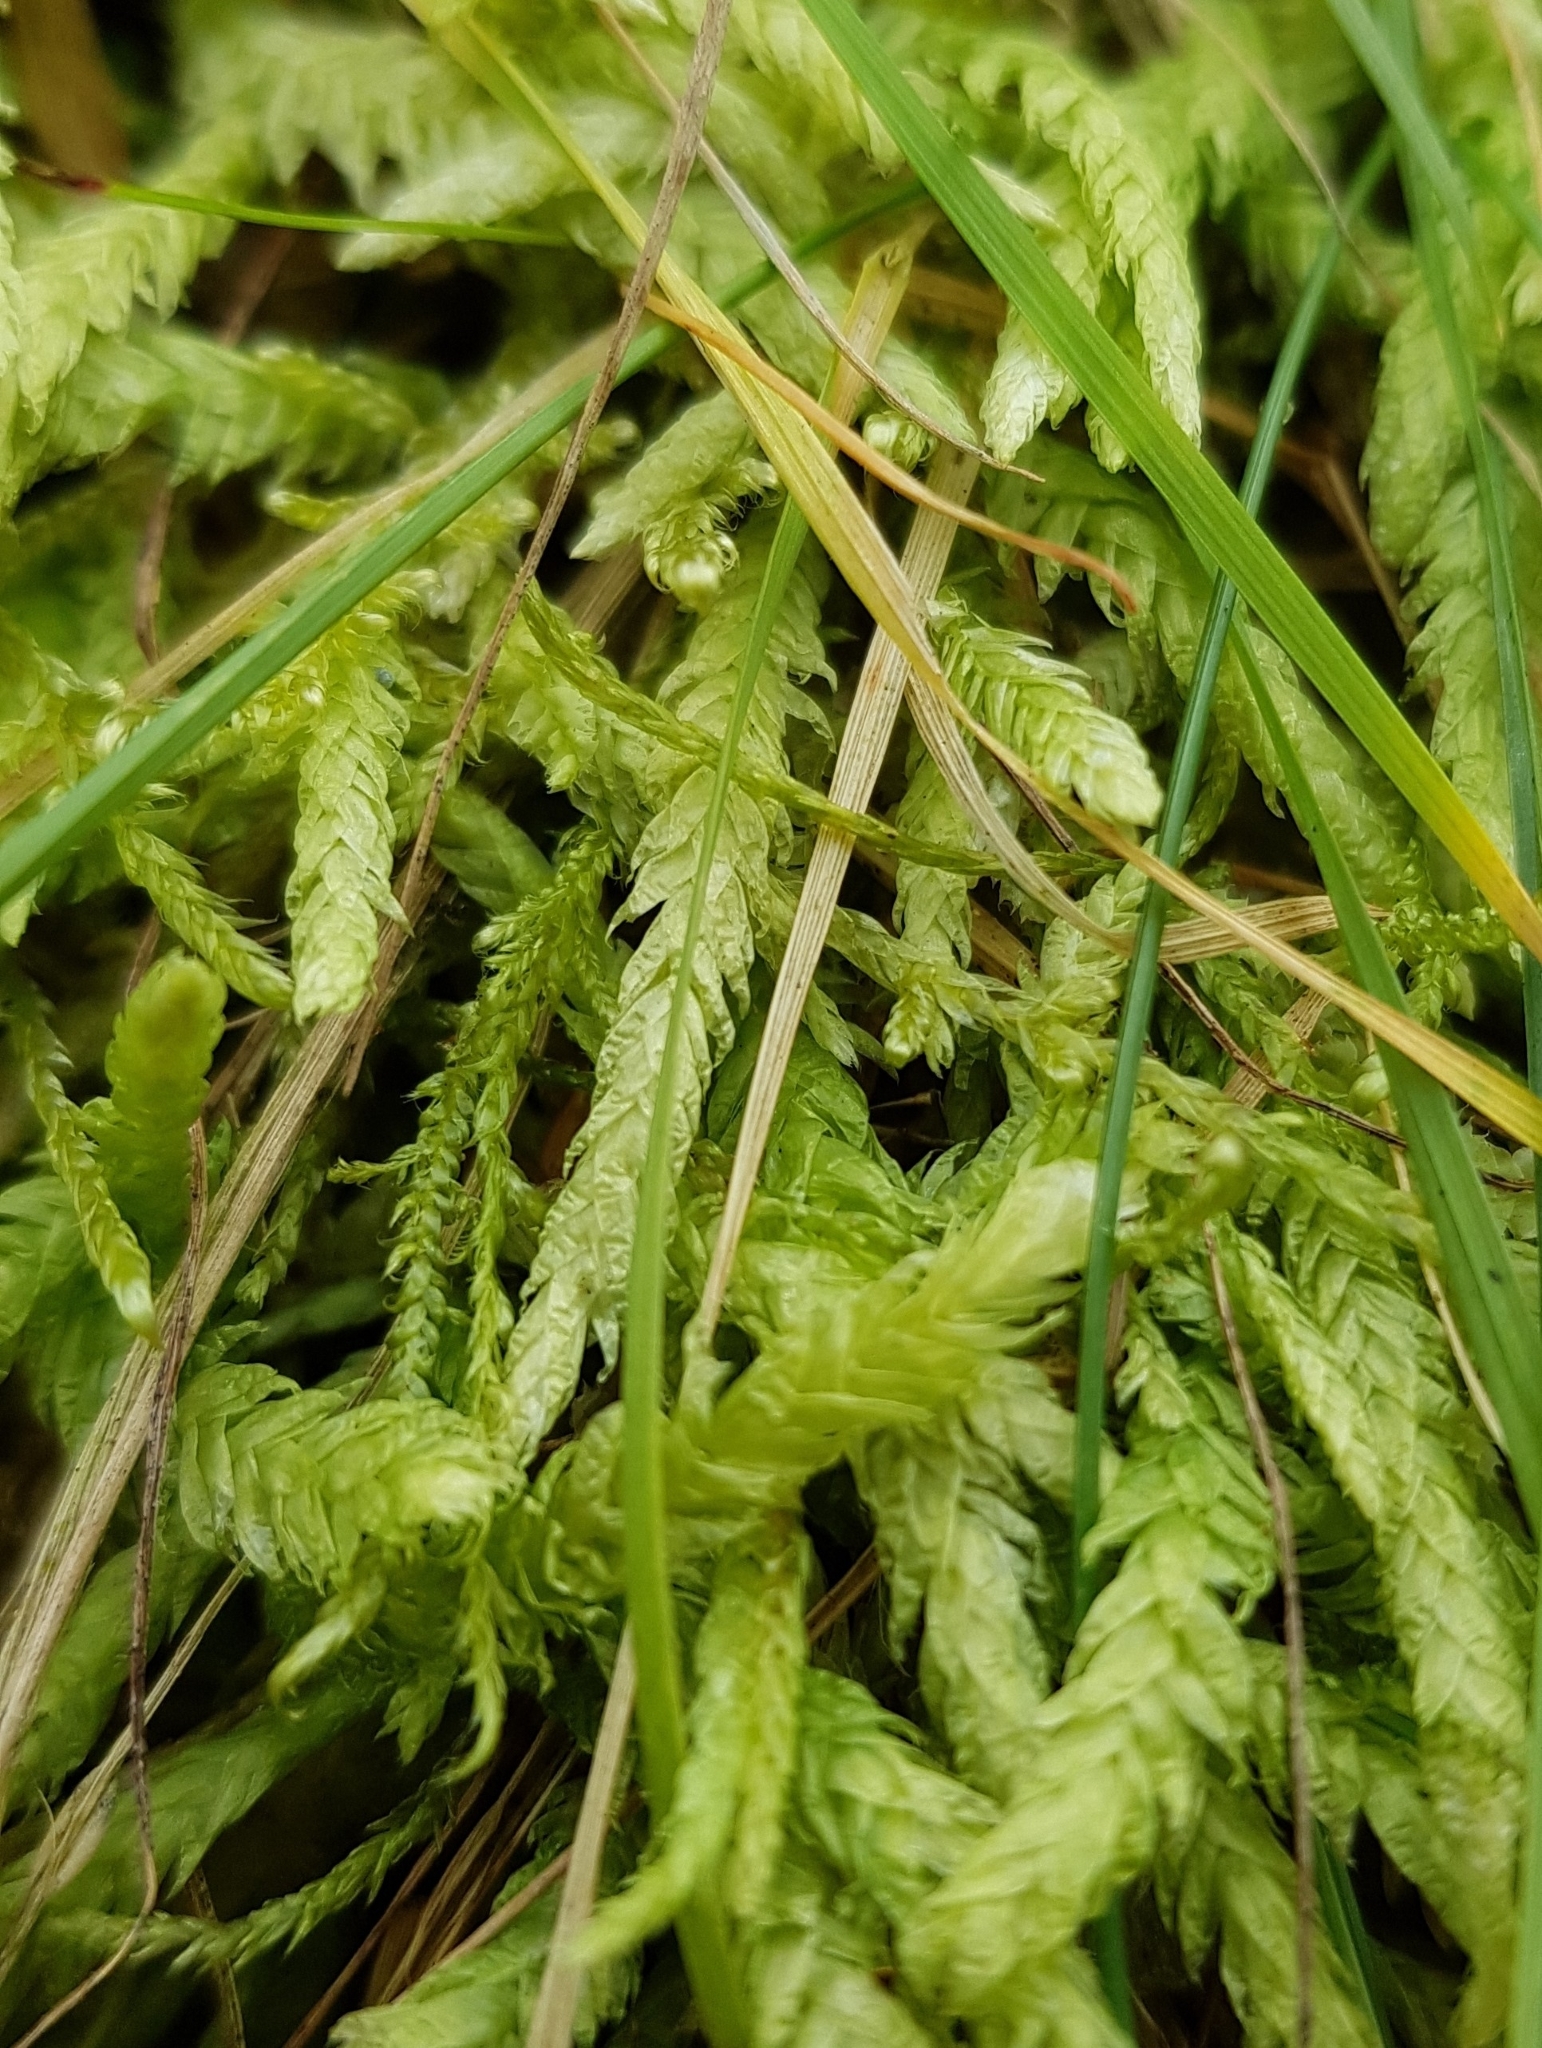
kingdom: Plantae
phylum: Bryophyta
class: Bryopsida
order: Hypnales
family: Plagiotheciaceae
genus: Plagiothecium
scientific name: Plagiothecium undulatum
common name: Waved silk-moss
